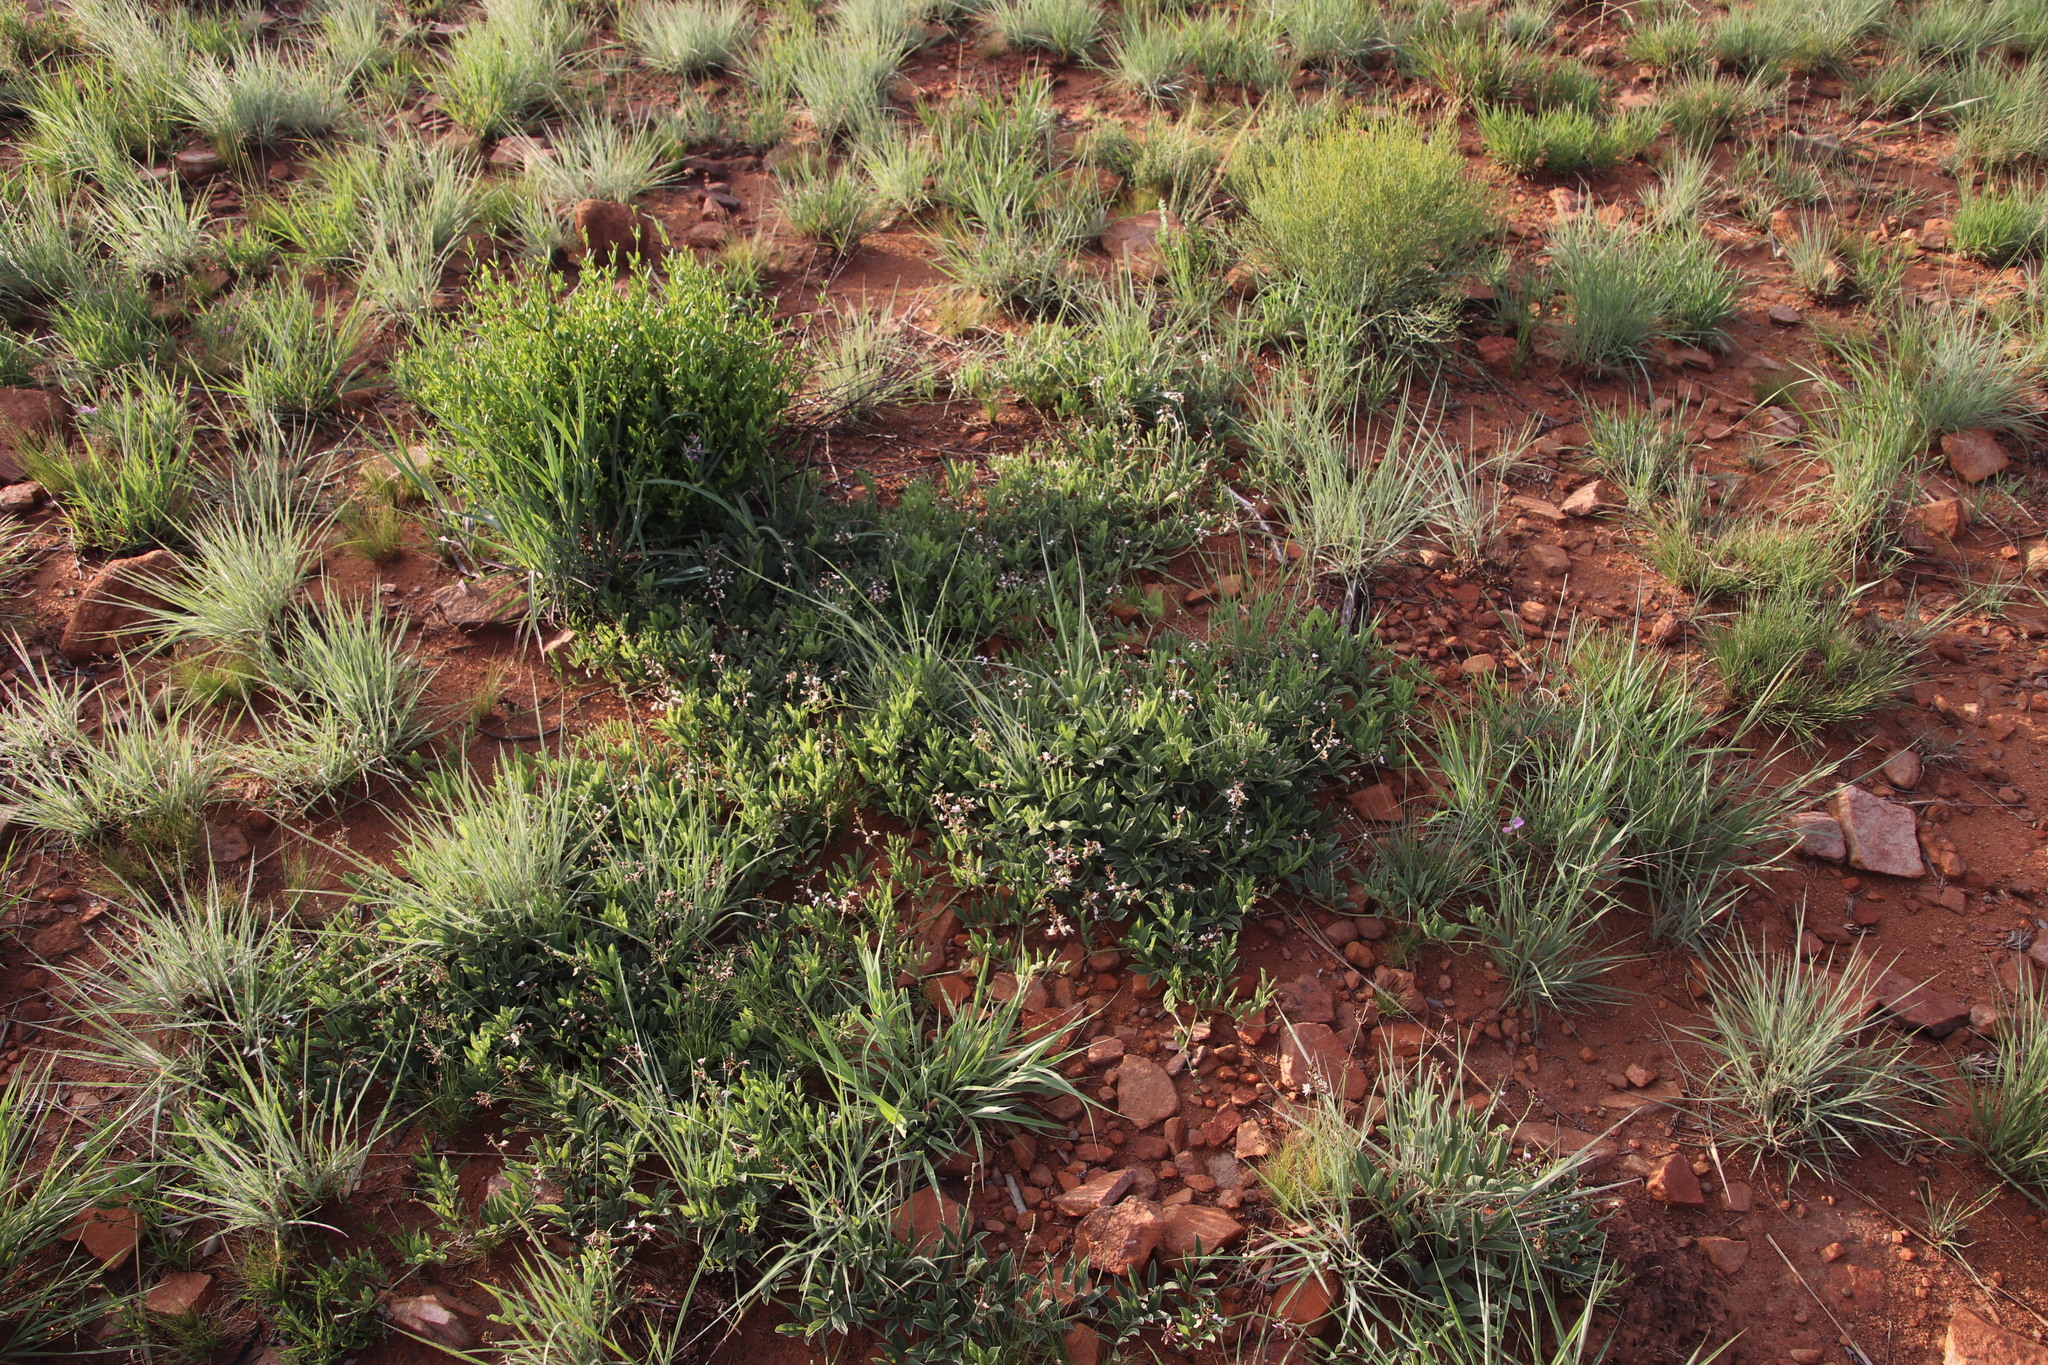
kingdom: Plantae
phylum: Tracheophyta
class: Magnoliopsida
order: Fabales
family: Fabaceae
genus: Ophrestia
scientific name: Ophrestia oblongifolia
